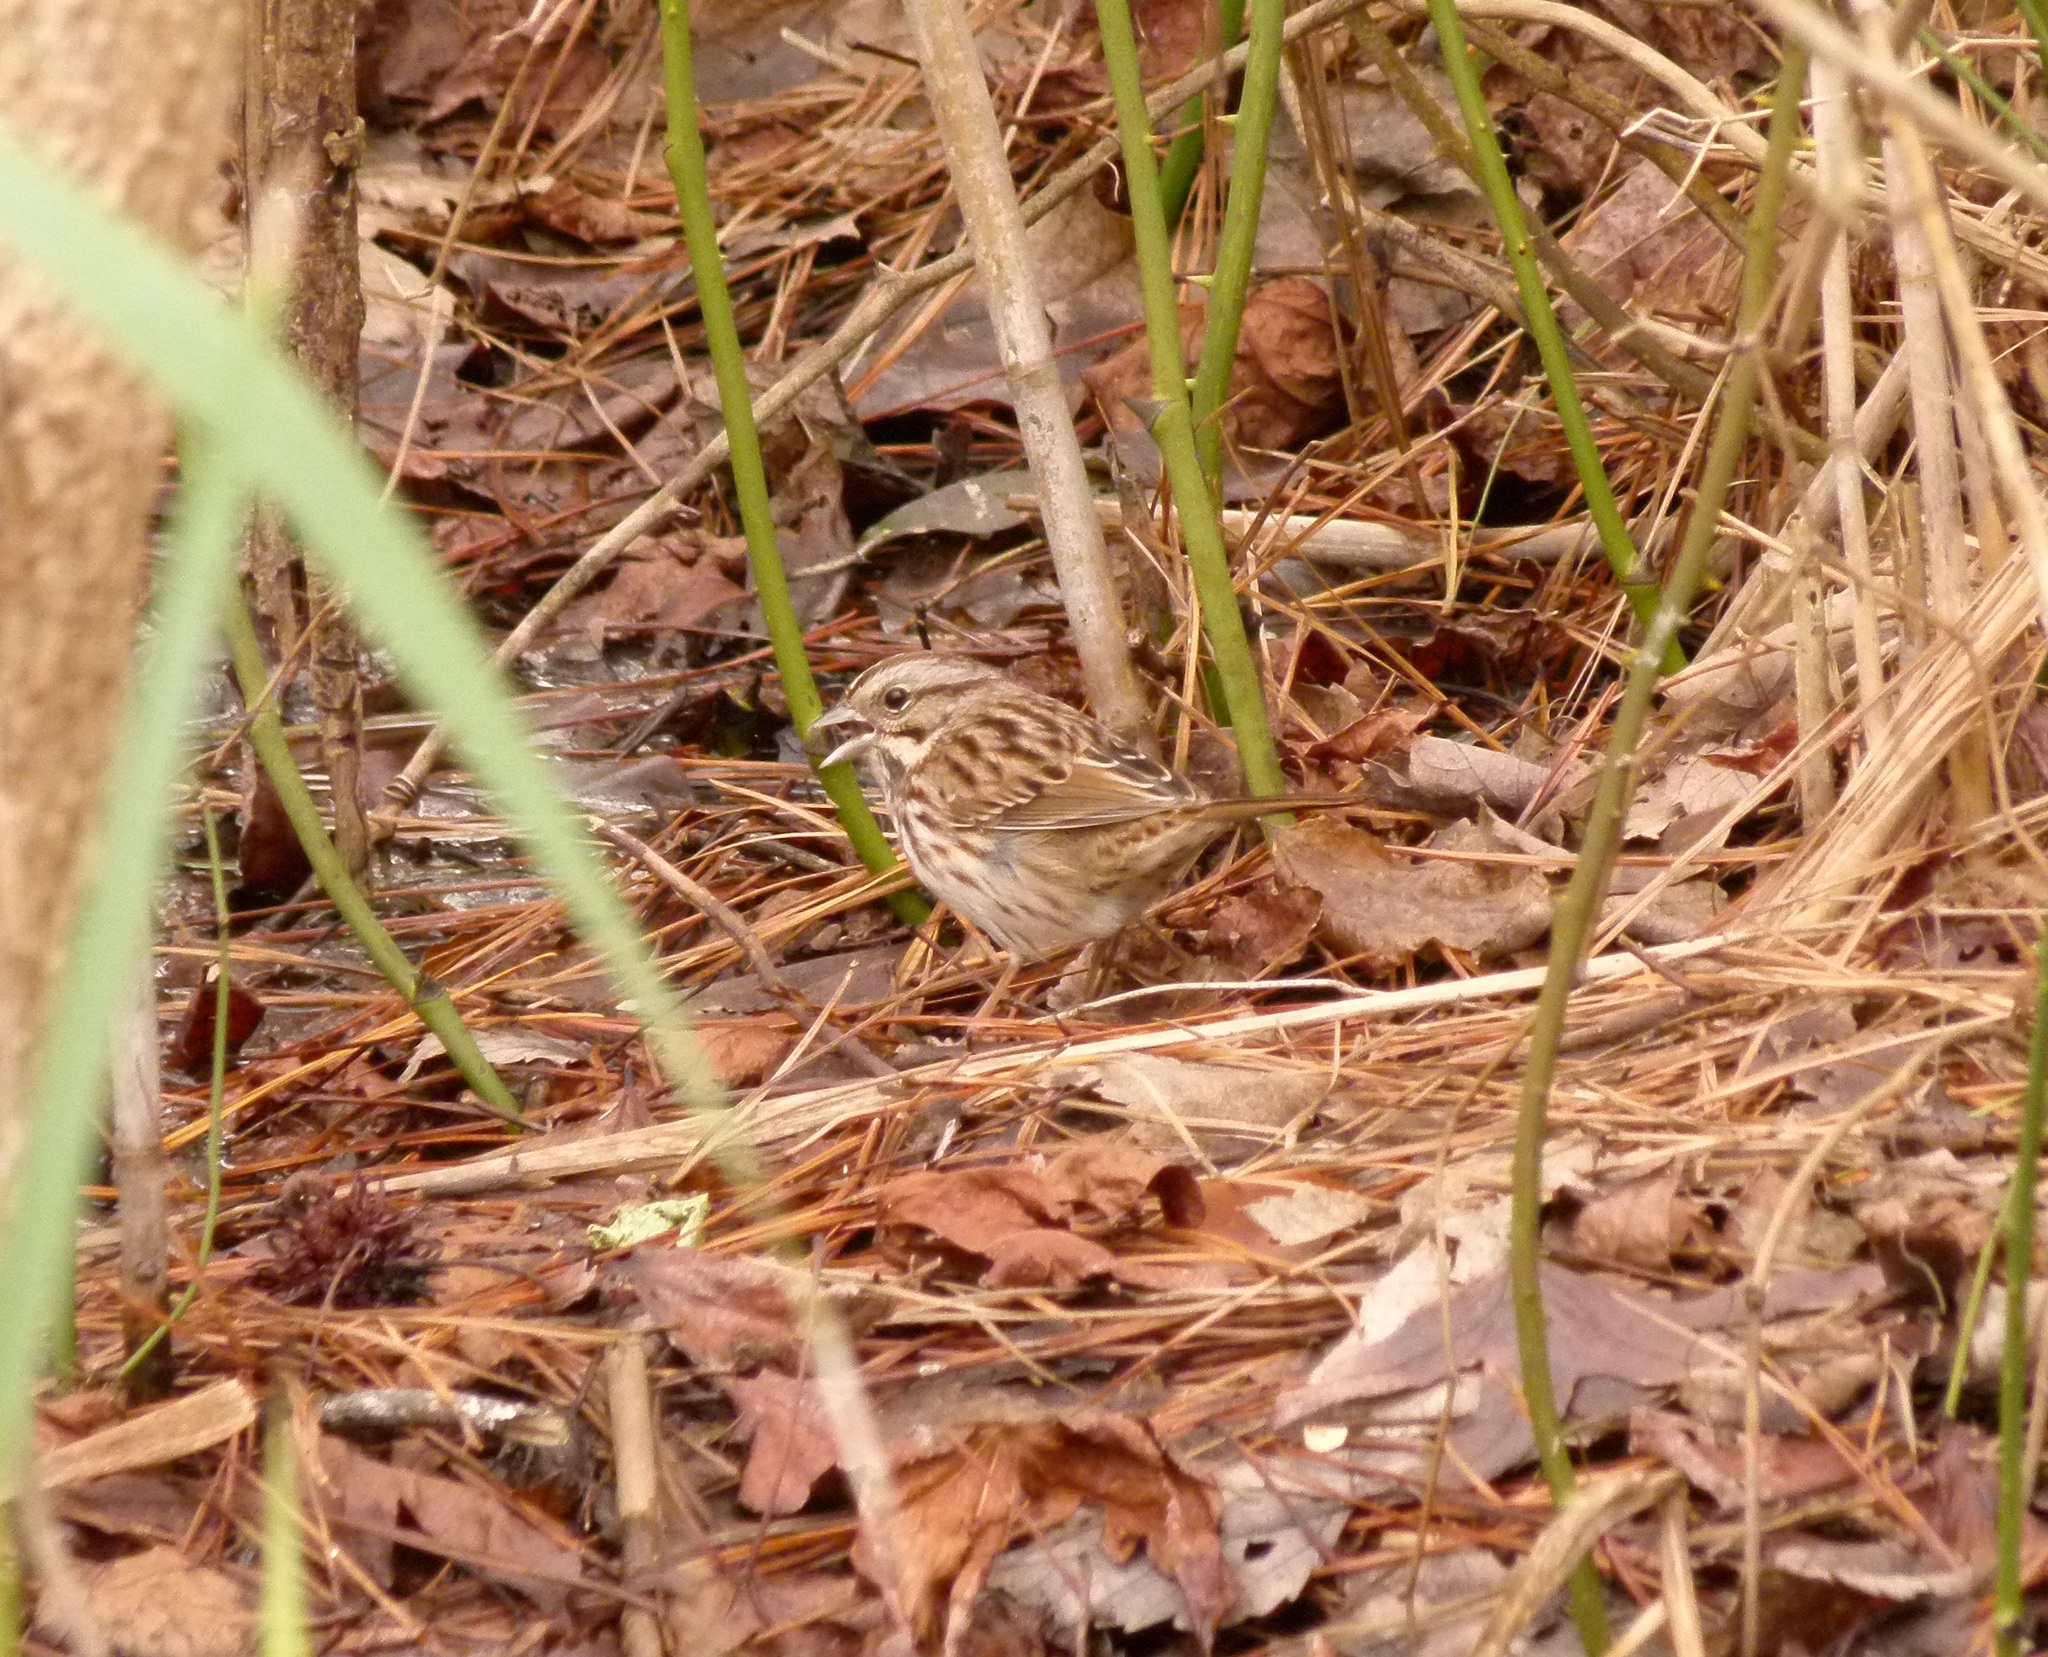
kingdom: Animalia
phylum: Chordata
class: Aves
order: Passeriformes
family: Passerellidae
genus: Melospiza
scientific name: Melospiza melodia
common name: Song sparrow
